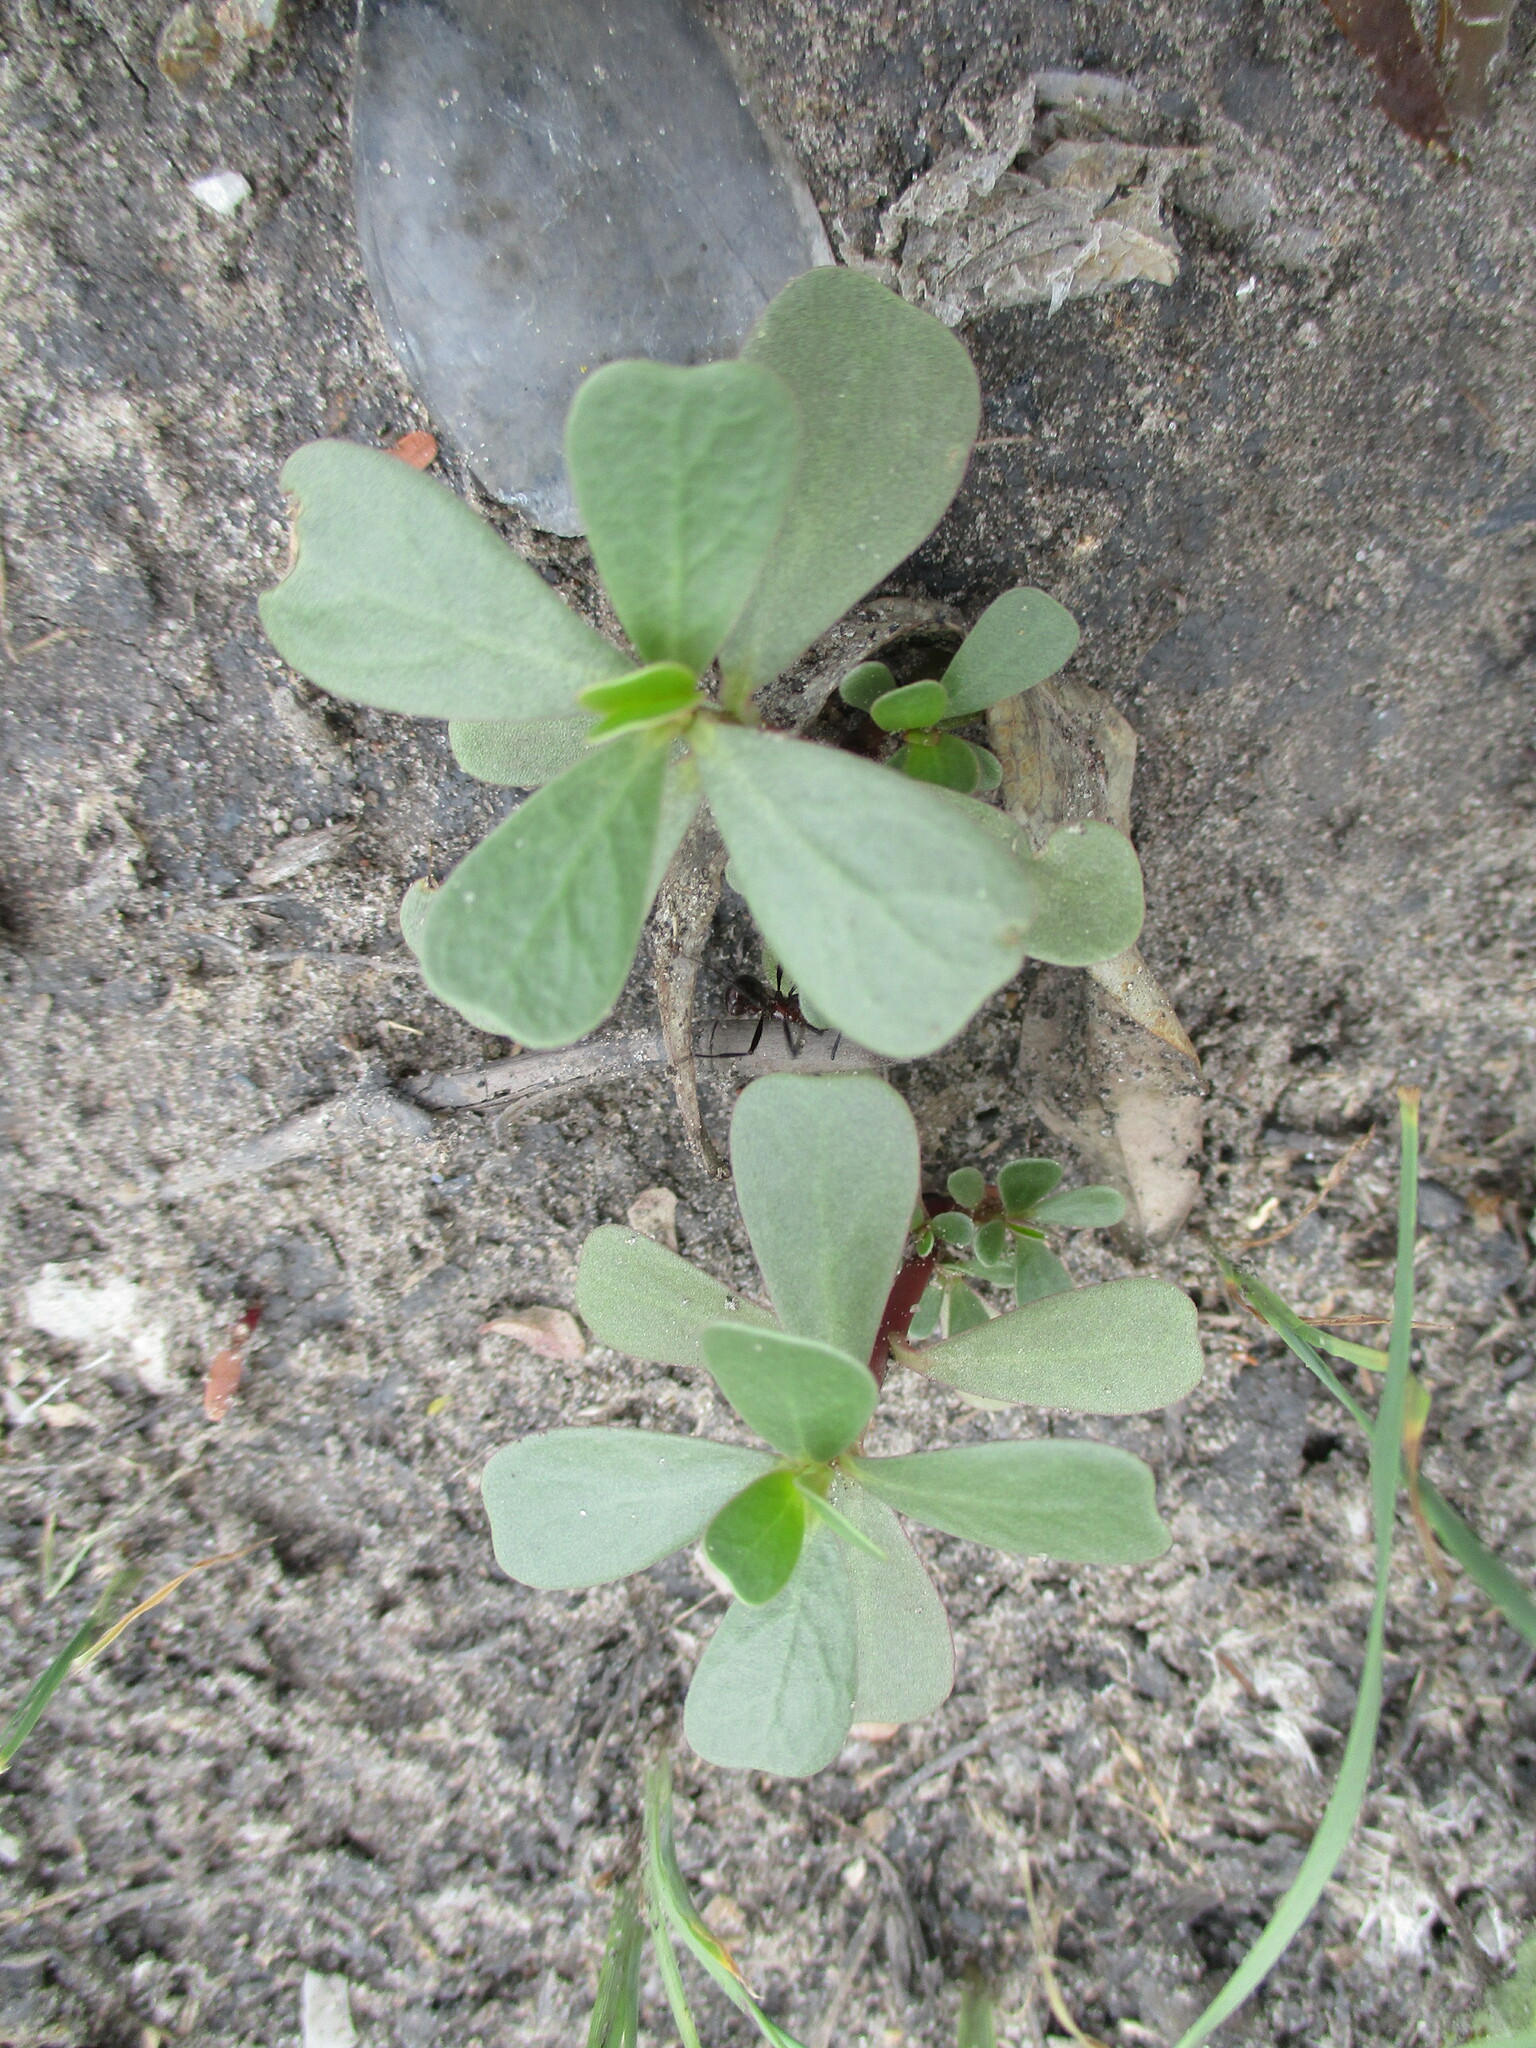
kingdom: Plantae
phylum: Tracheophyta
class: Magnoliopsida
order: Caryophyllales
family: Portulacaceae
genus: Portulaca
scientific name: Portulaca oleracea
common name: Common purslane
